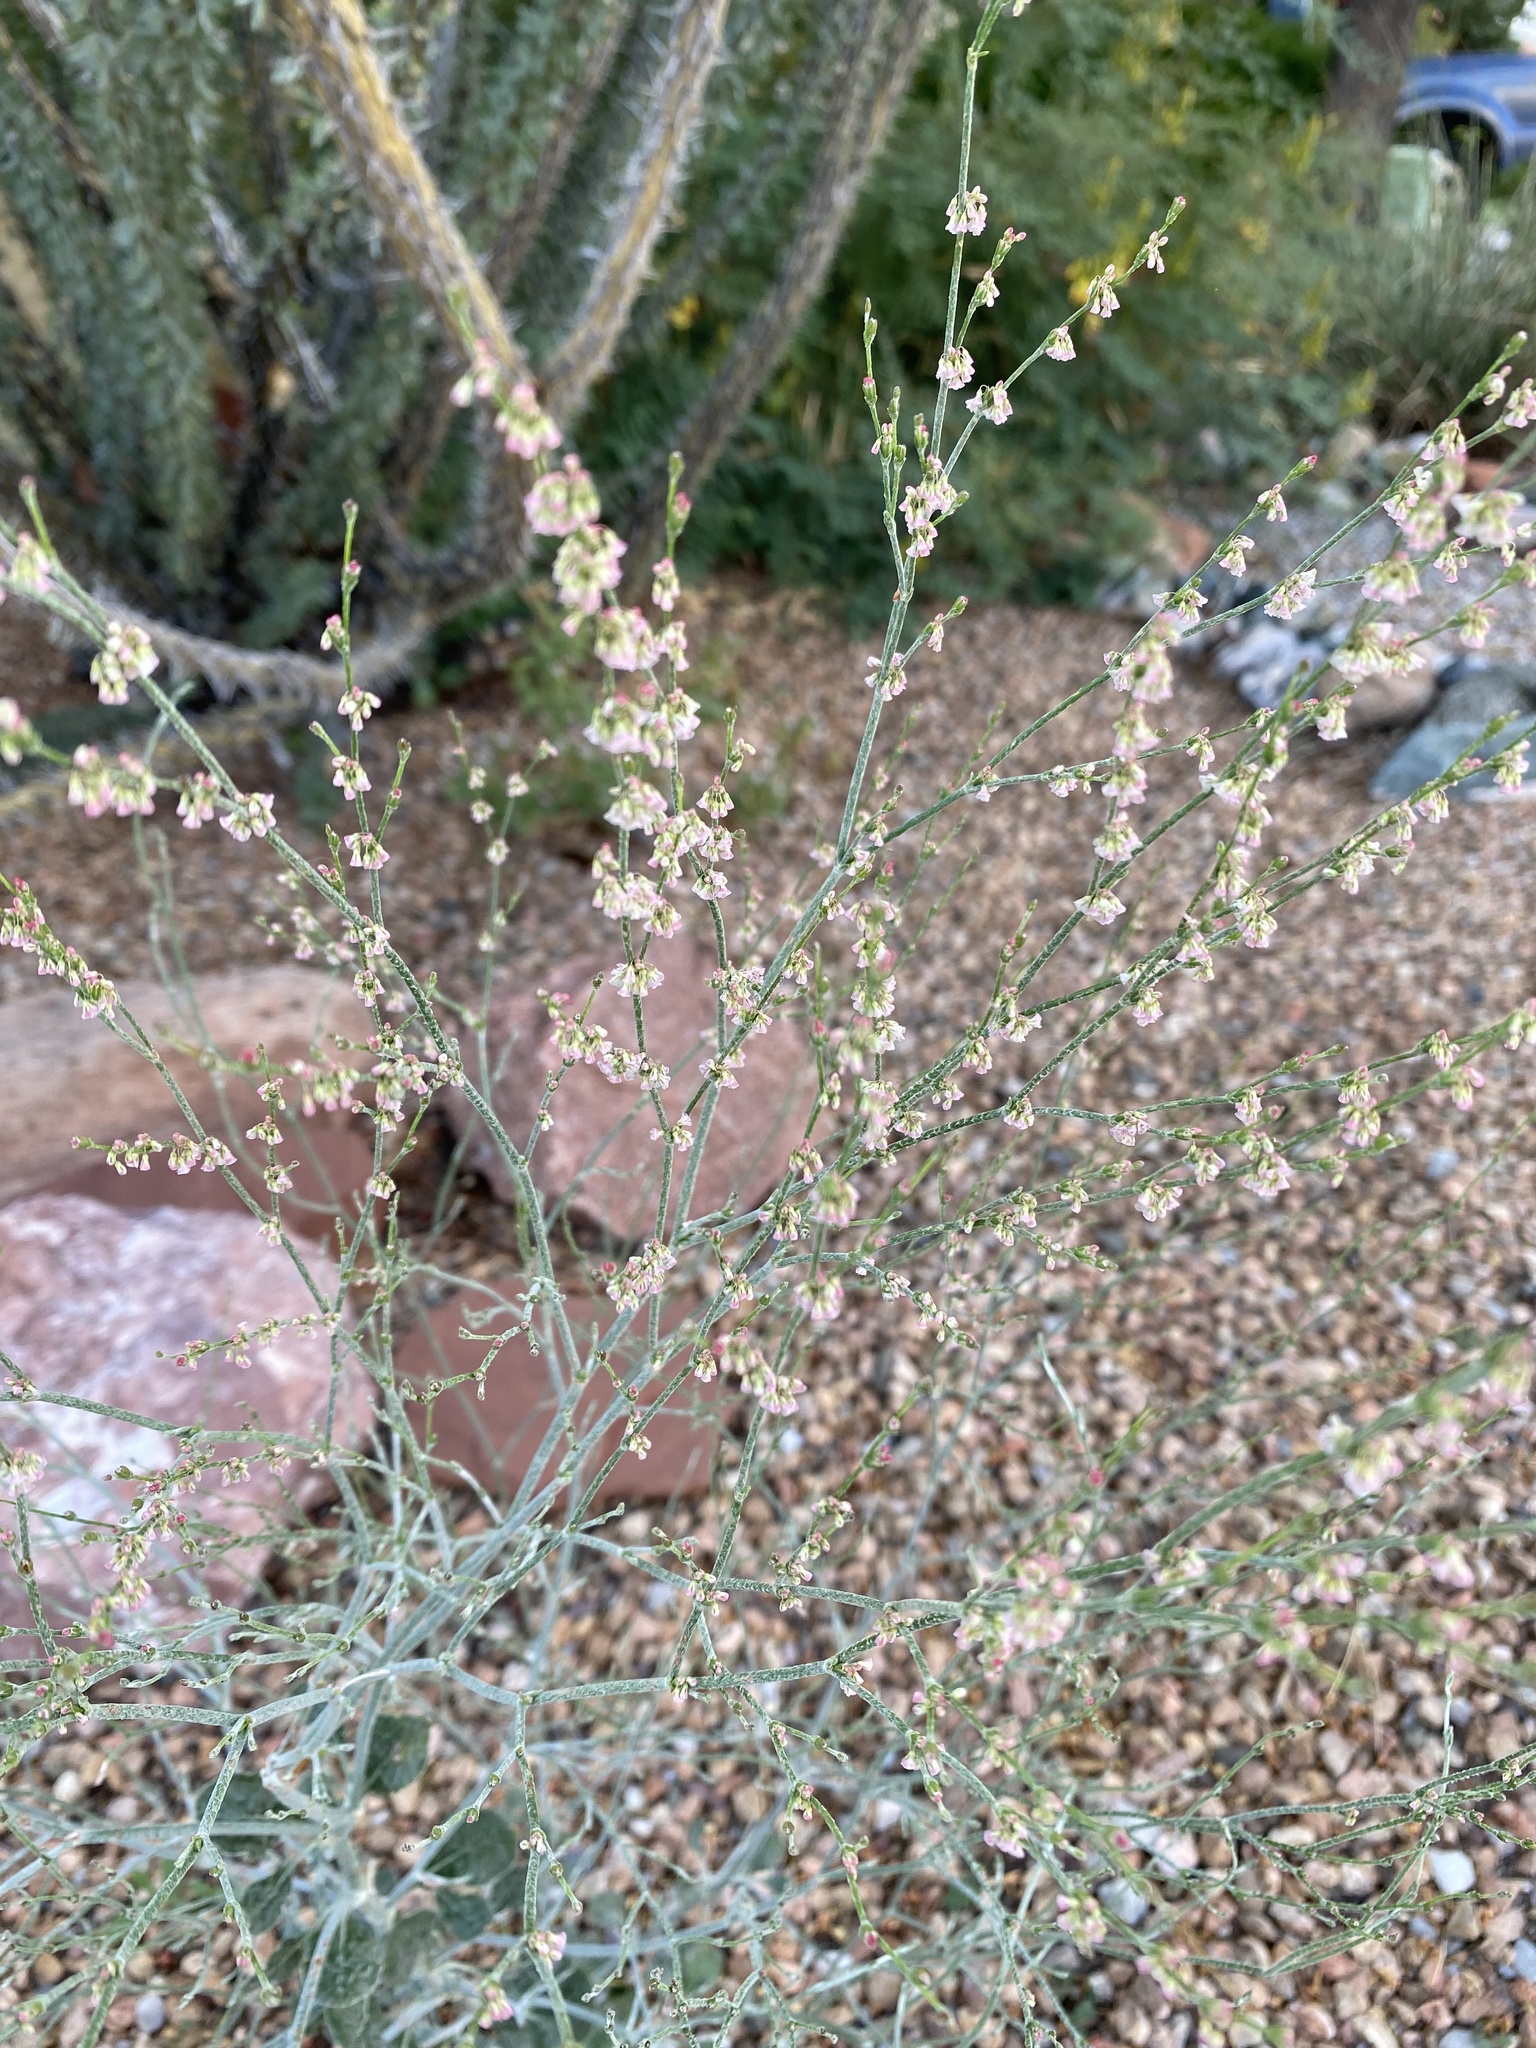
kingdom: Plantae
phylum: Tracheophyta
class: Magnoliopsida
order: Caryophyllales
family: Polygonaceae
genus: Eriogonum
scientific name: Eriogonum polycladon
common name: Sorrel wild buckwheat
